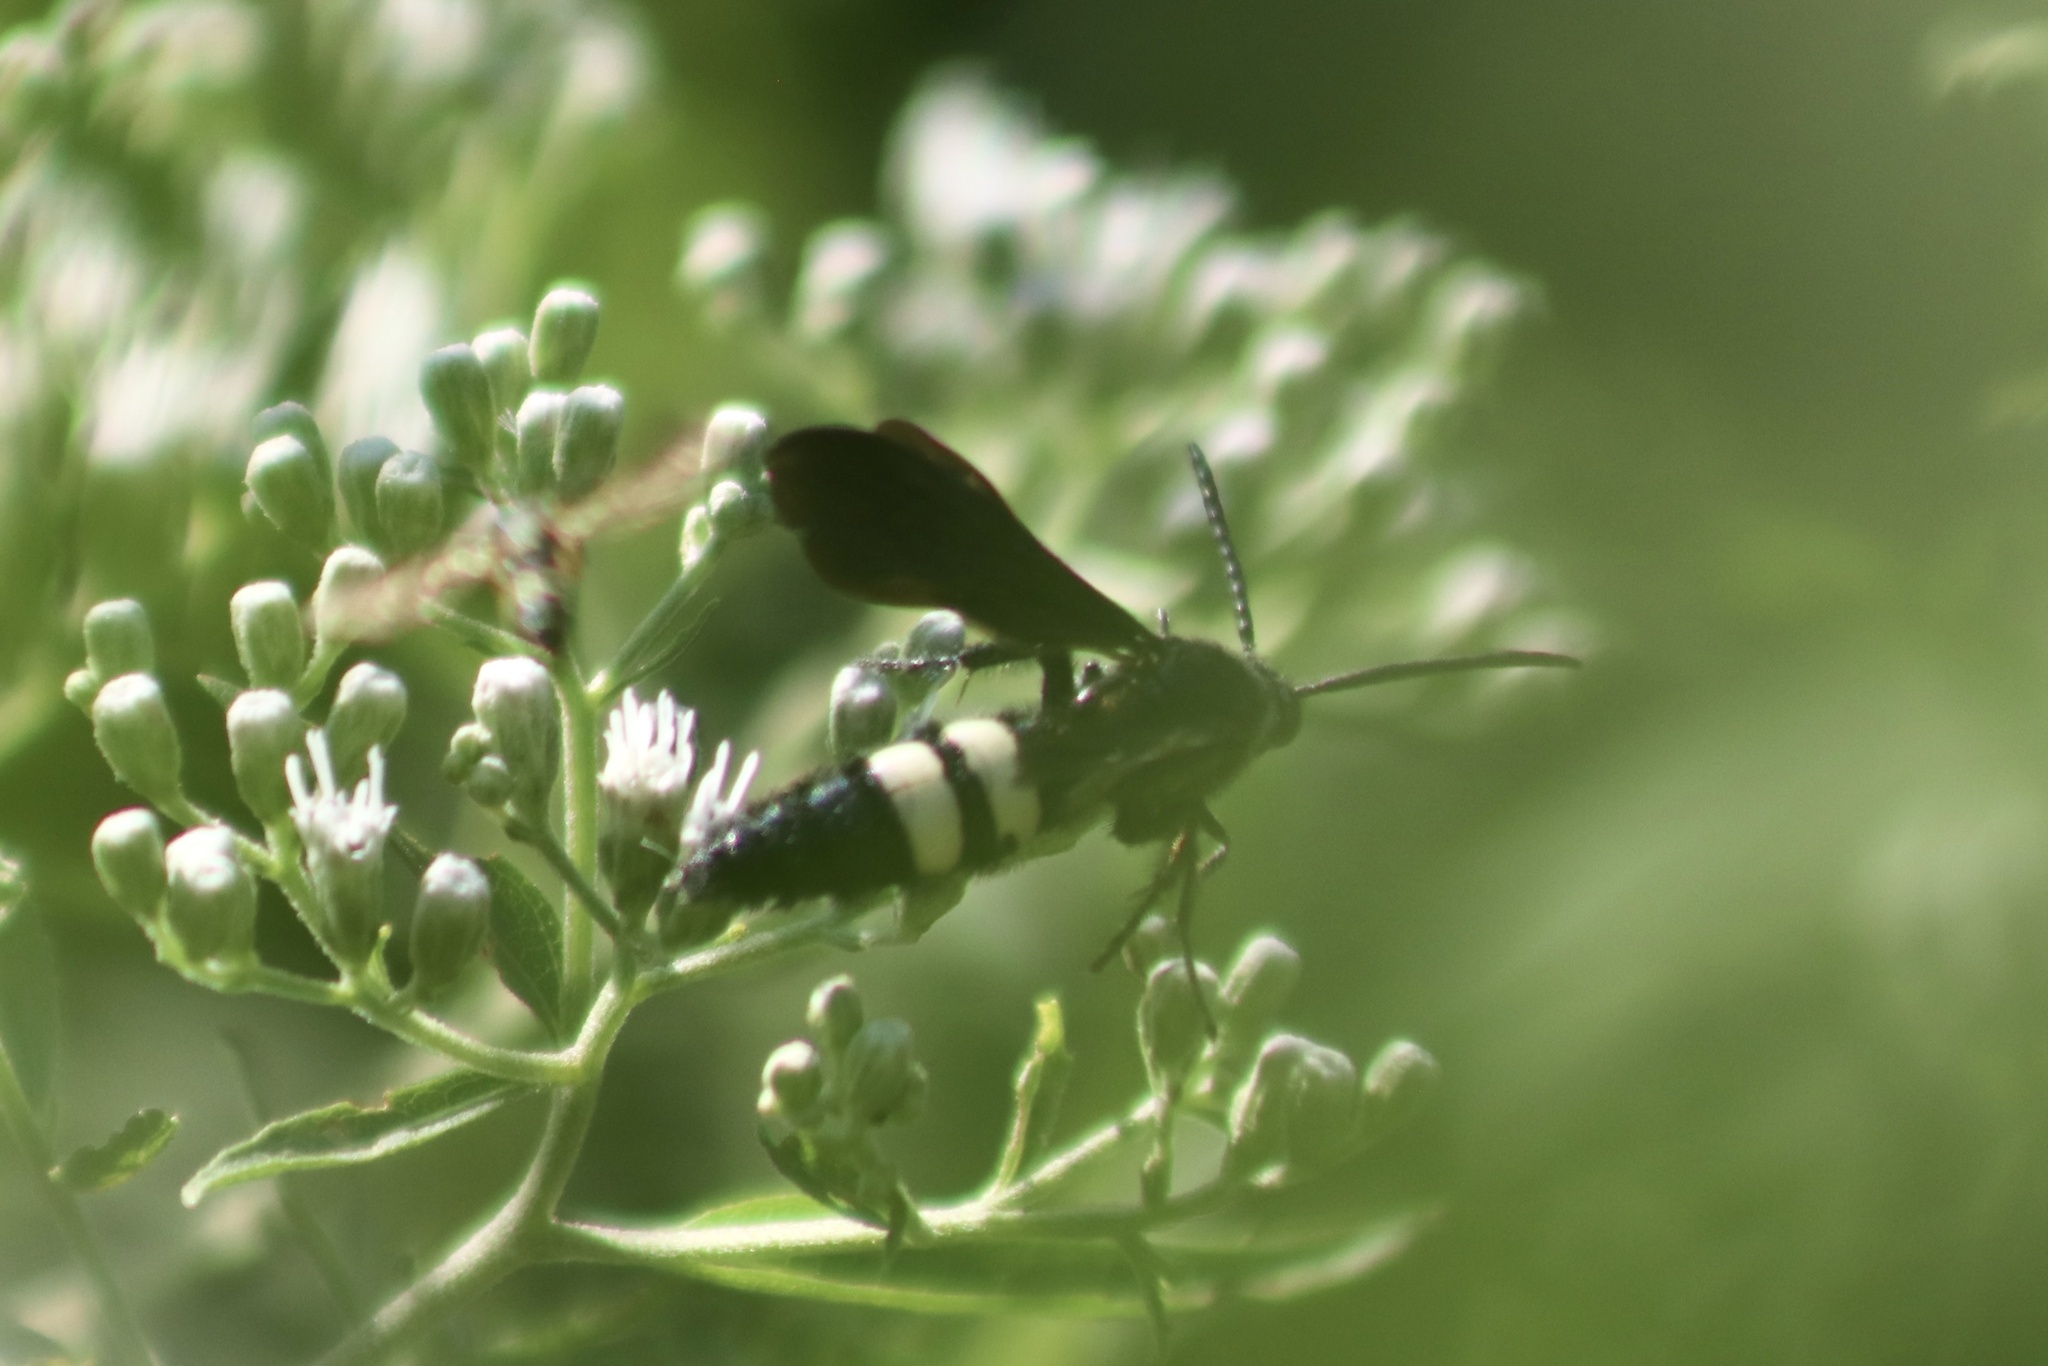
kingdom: Animalia
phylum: Arthropoda
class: Insecta
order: Hymenoptera
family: Scoliidae
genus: Scolia
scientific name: Scolia bicincta
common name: Double-banded scoliid wasp
